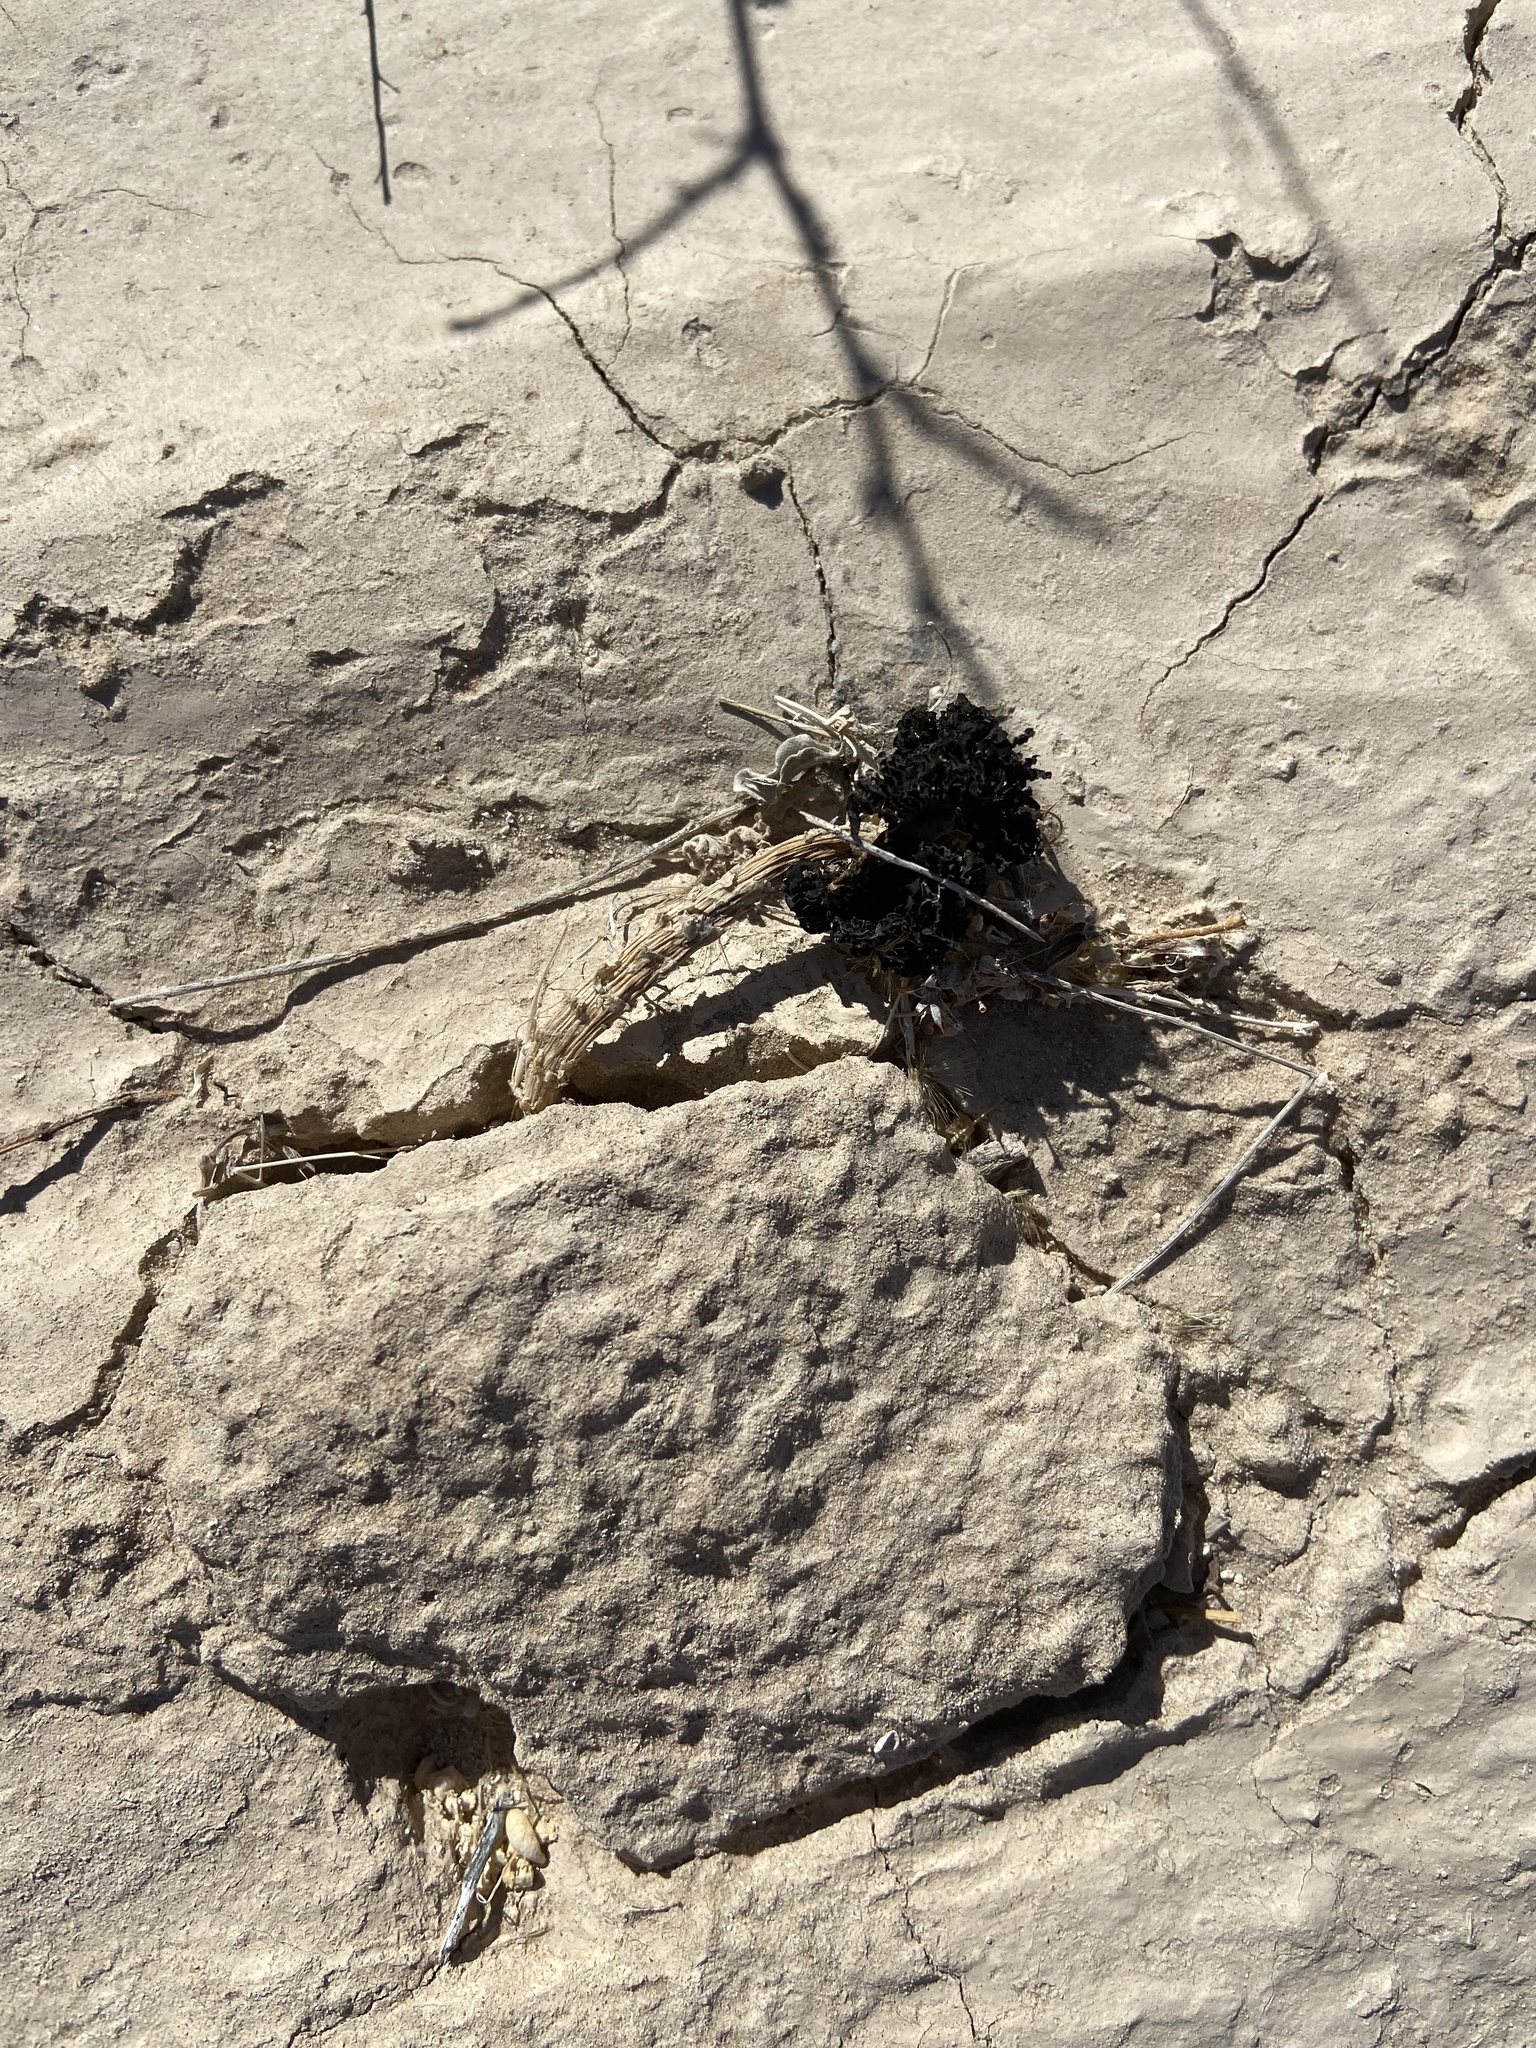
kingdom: Fungi
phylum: Basidiomycota
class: Agaricomycetes
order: Agaricales
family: Agaricaceae
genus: Montagnea
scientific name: Montagnea arenaria
